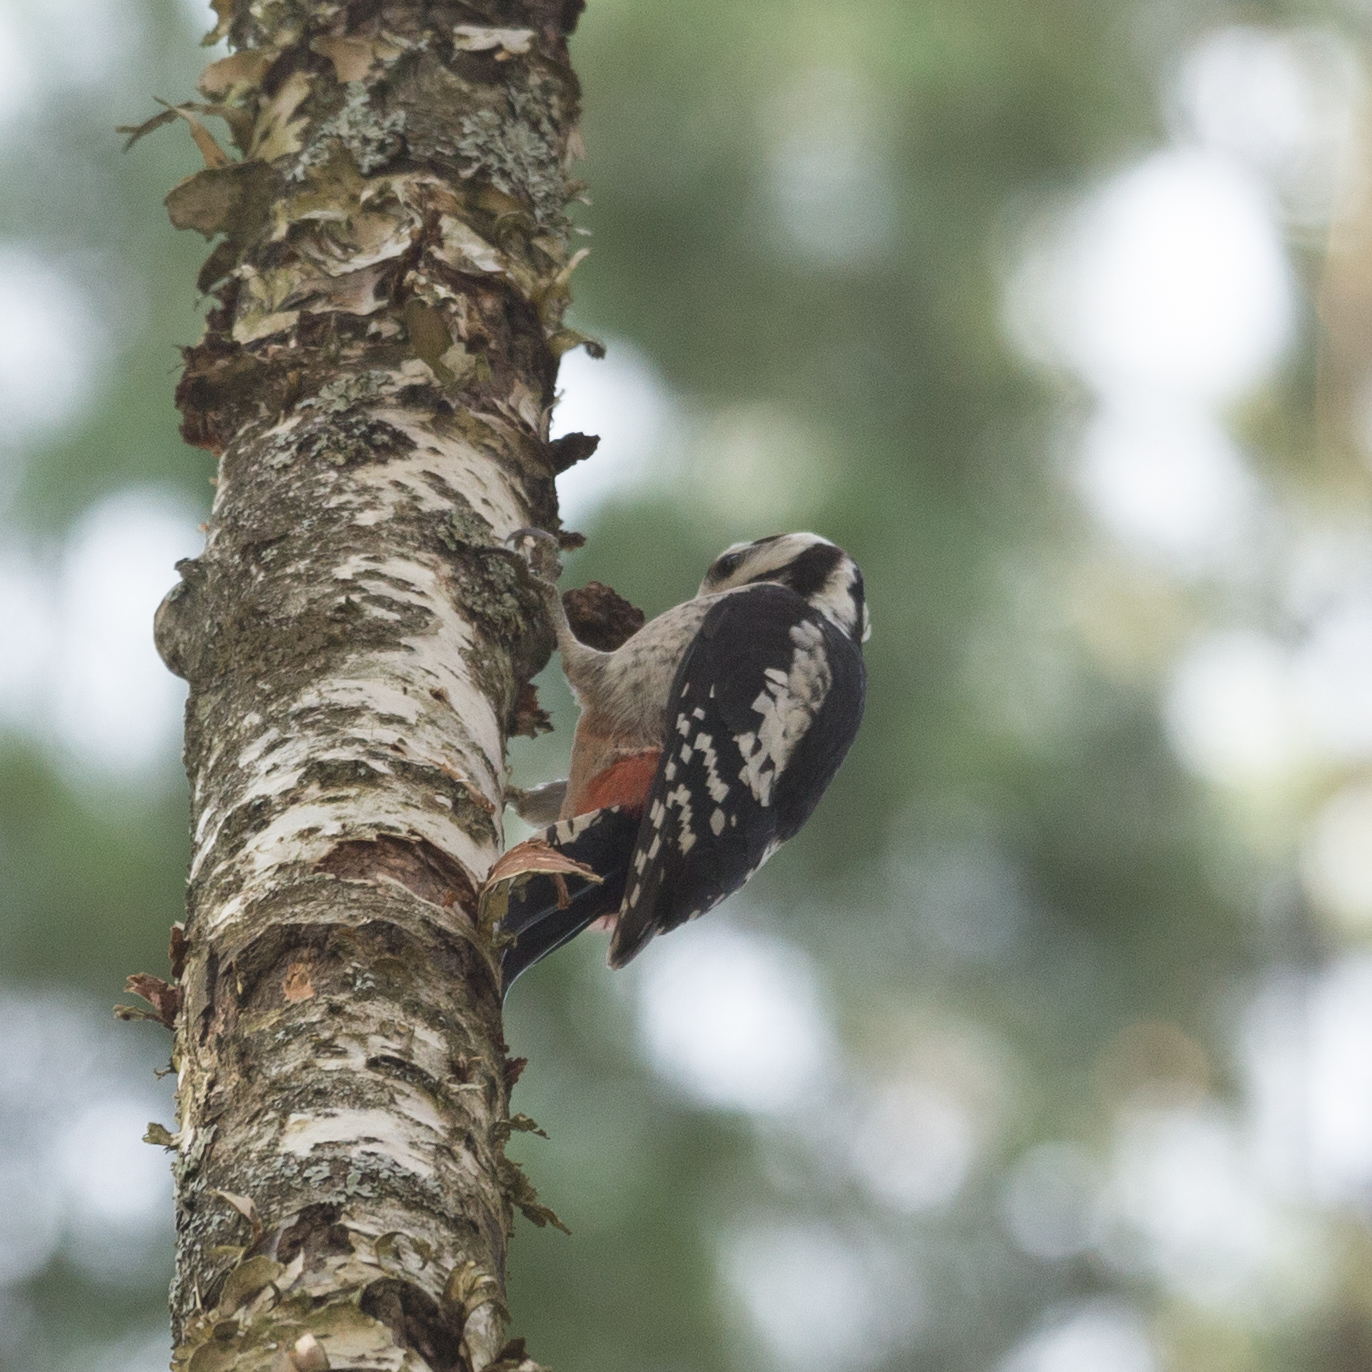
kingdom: Animalia
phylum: Chordata
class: Aves
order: Piciformes
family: Picidae
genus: Dendrocopos
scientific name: Dendrocopos major
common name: Great spotted woodpecker
